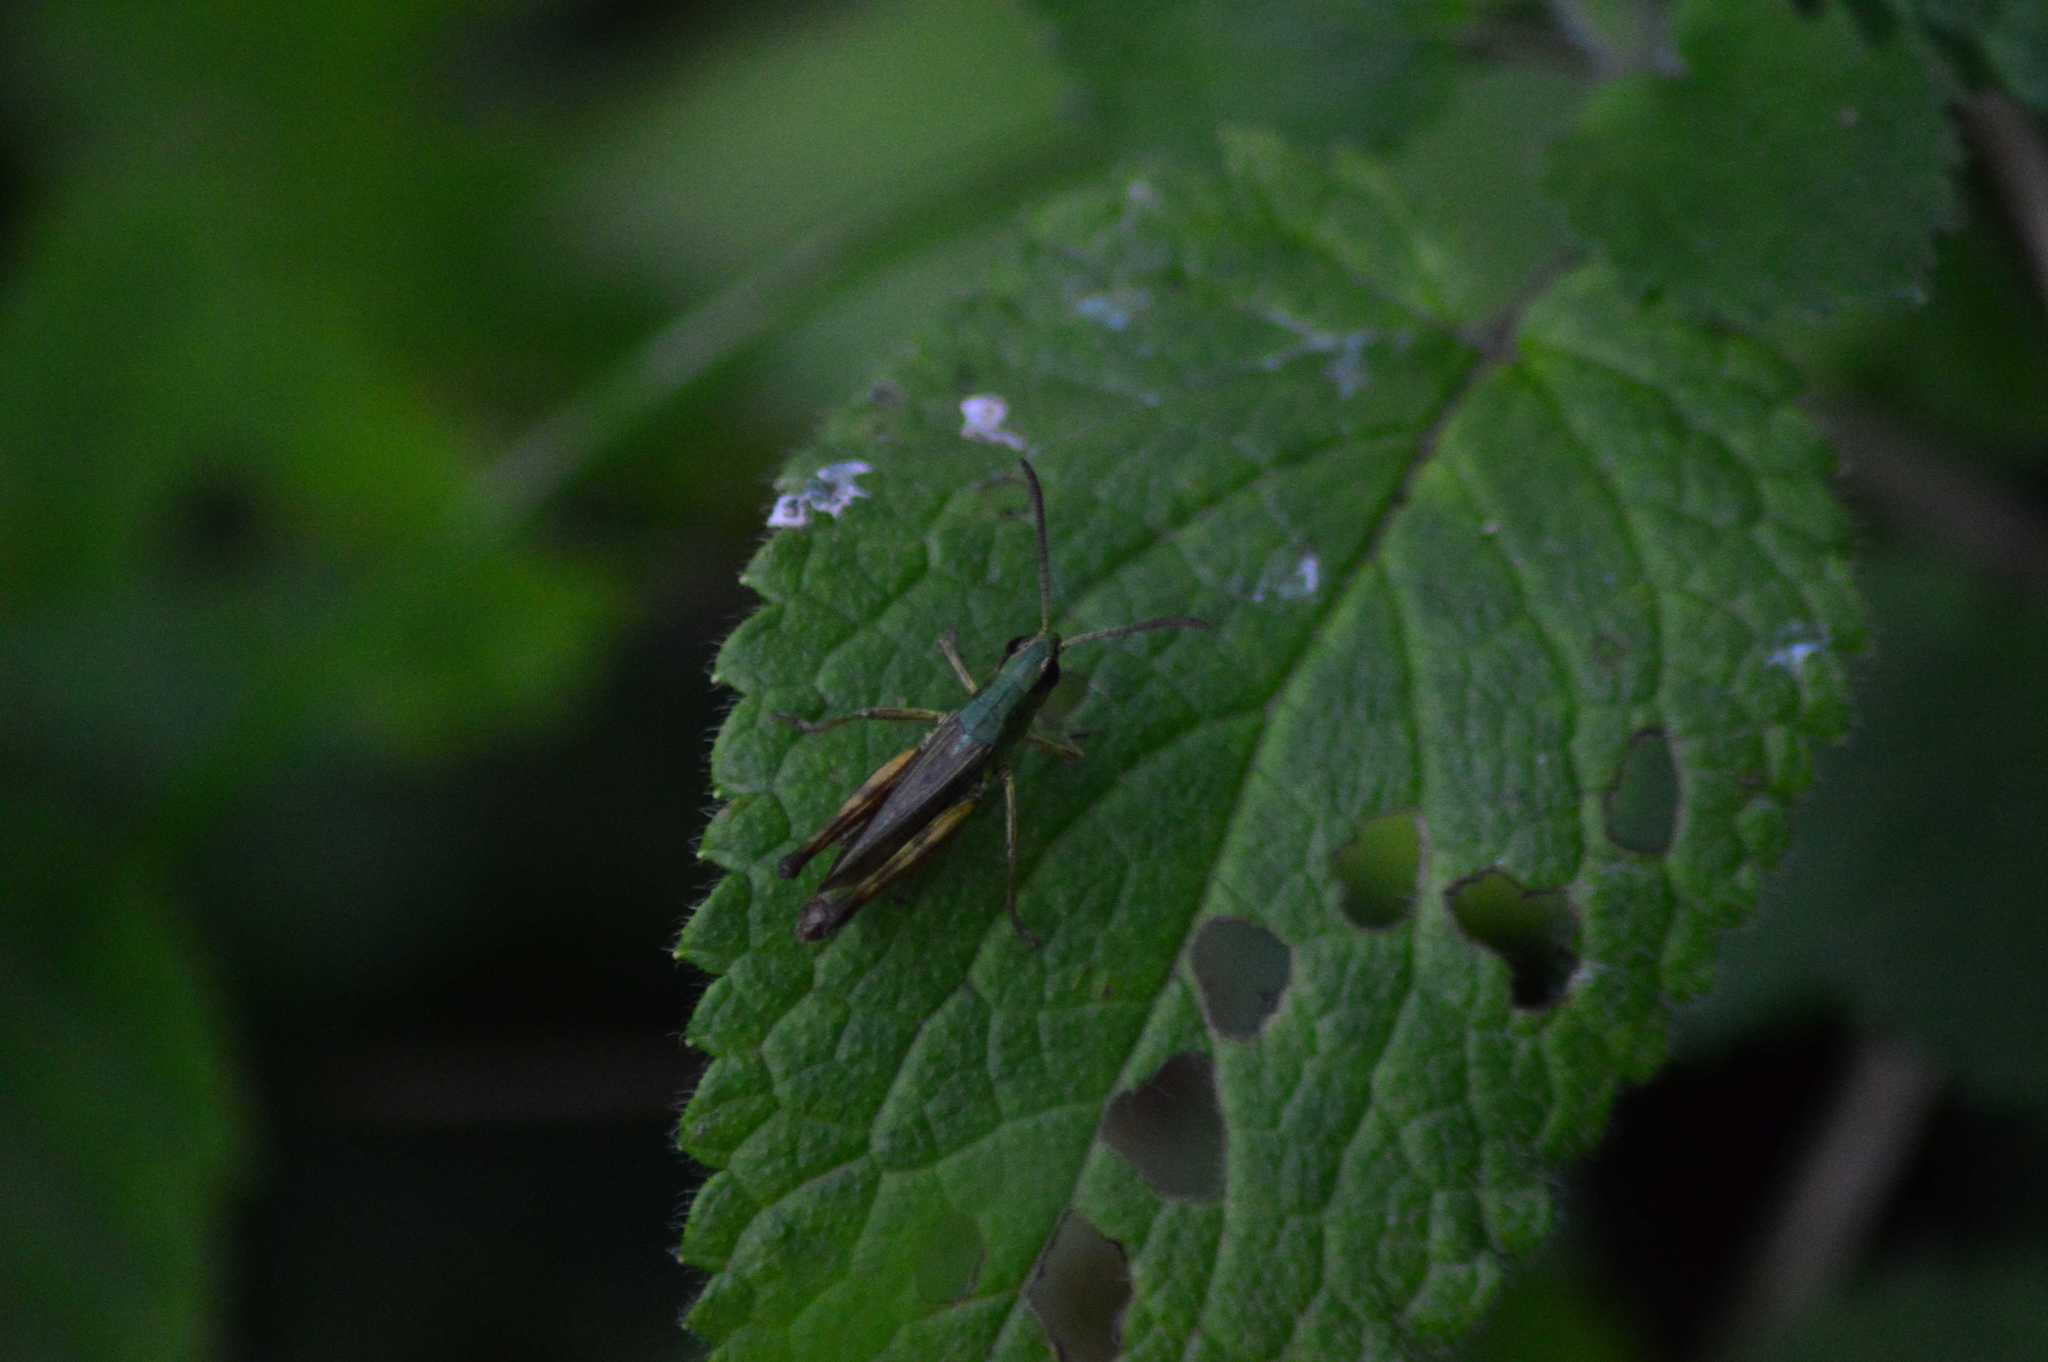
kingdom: Animalia
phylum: Arthropoda
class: Insecta
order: Orthoptera
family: Acrididae
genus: Pseudochorthippus
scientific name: Pseudochorthippus parallelus
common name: Meadow grasshopper
